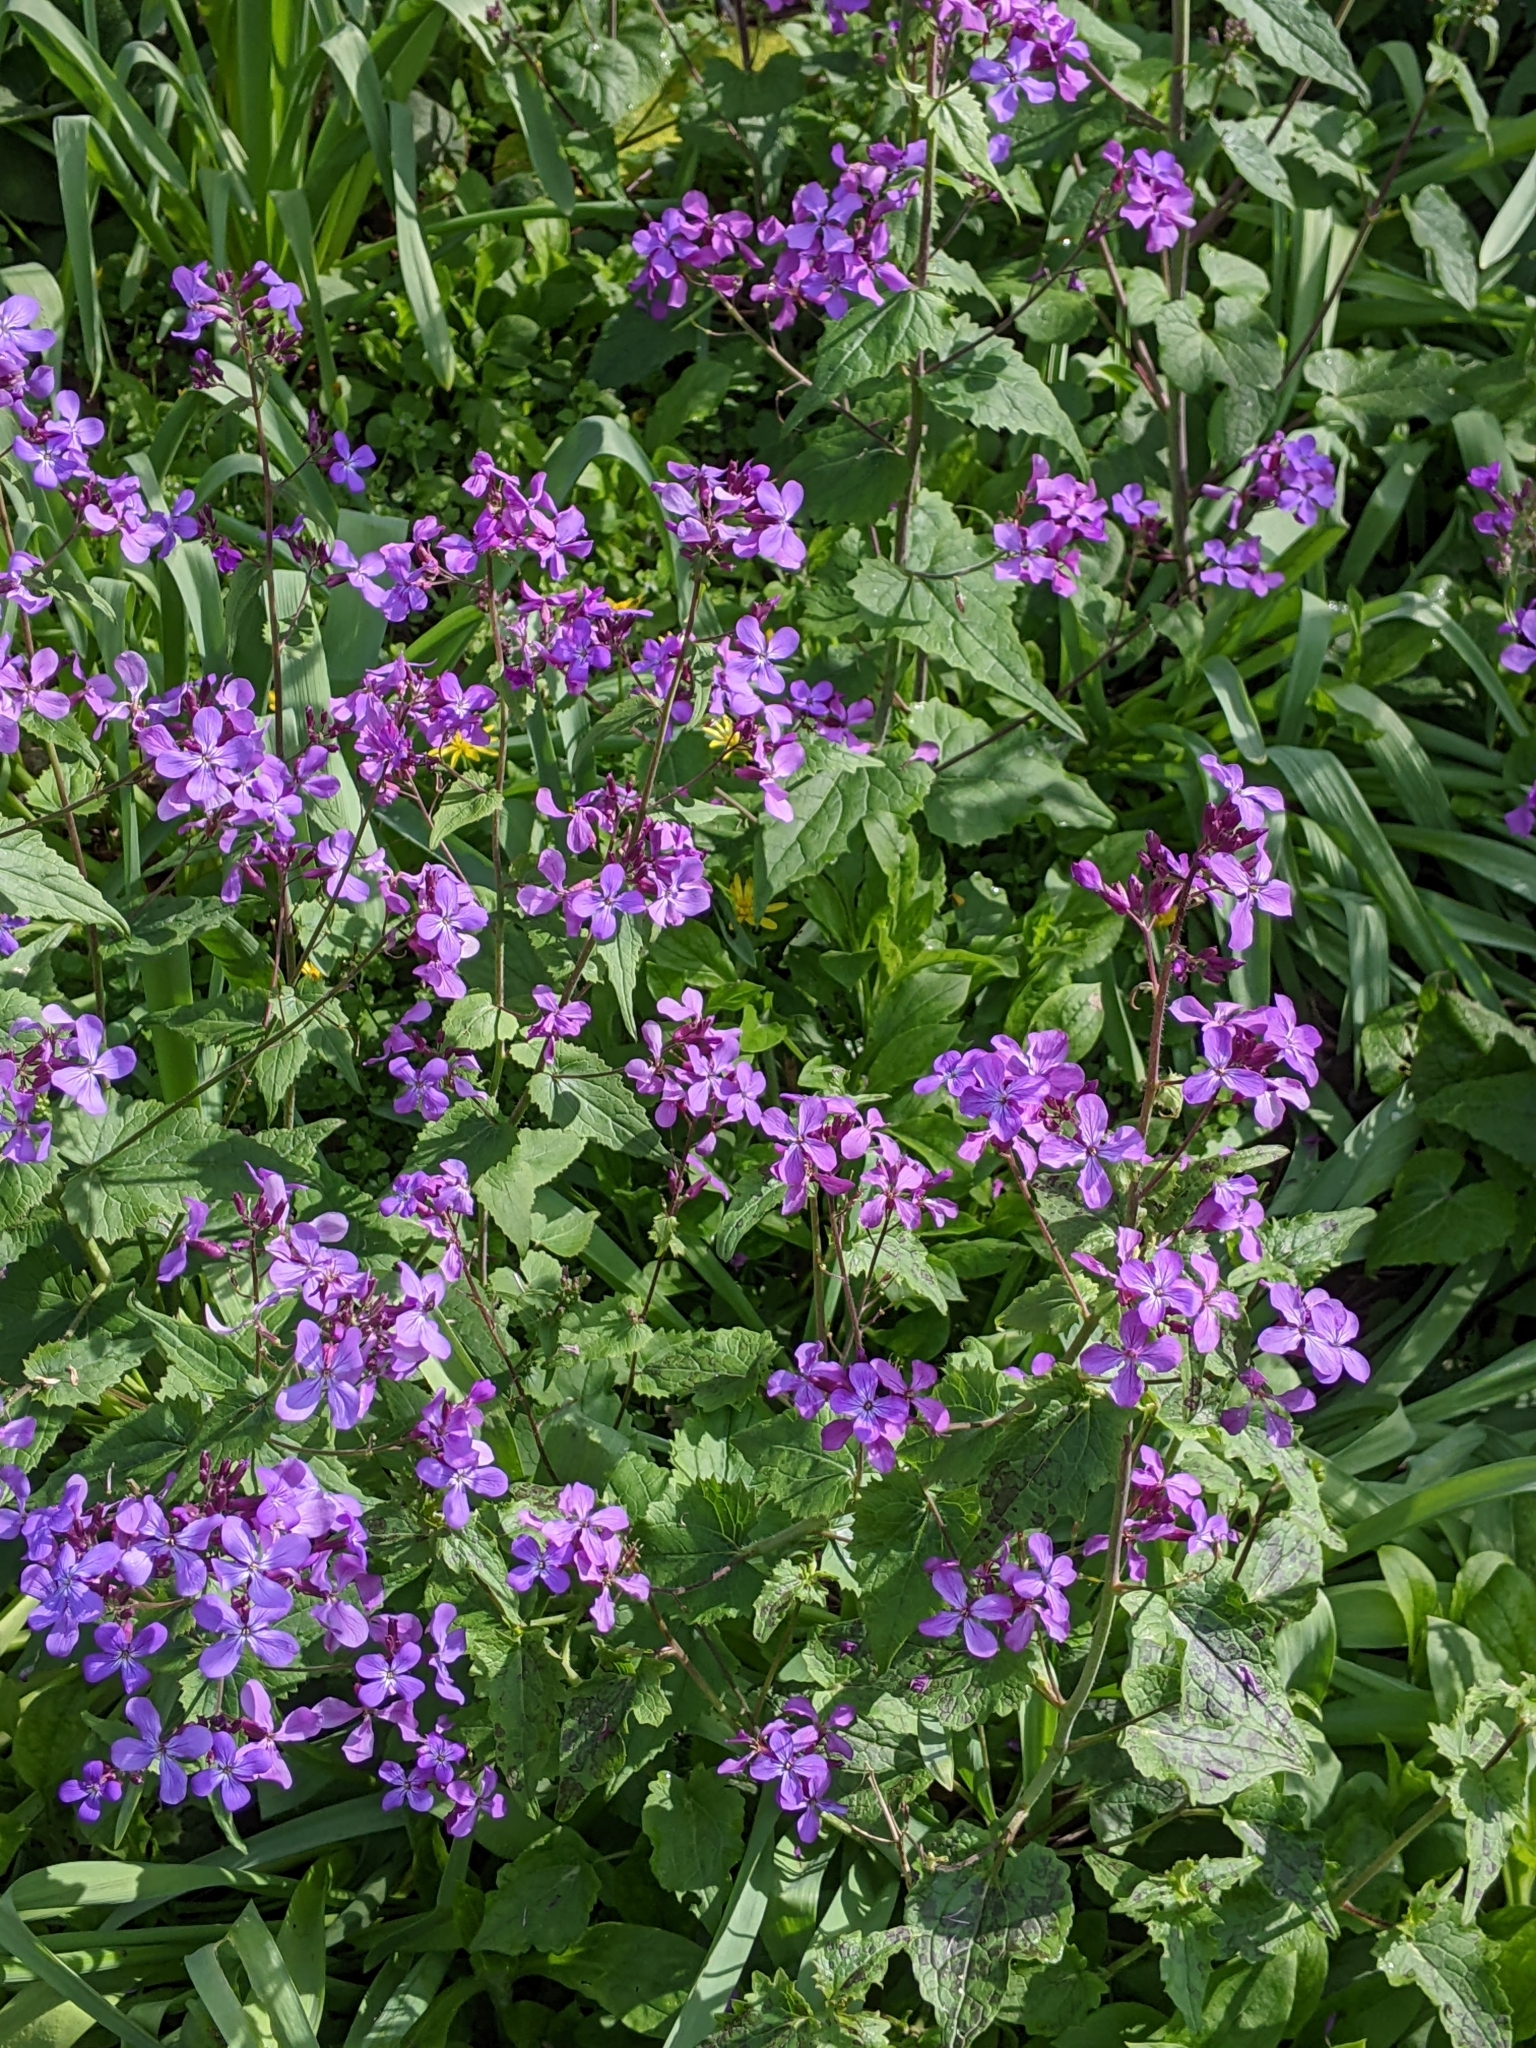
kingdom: Plantae
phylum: Tracheophyta
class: Magnoliopsida
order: Brassicales
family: Brassicaceae
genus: Lunaria
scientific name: Lunaria annua
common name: Honesty
